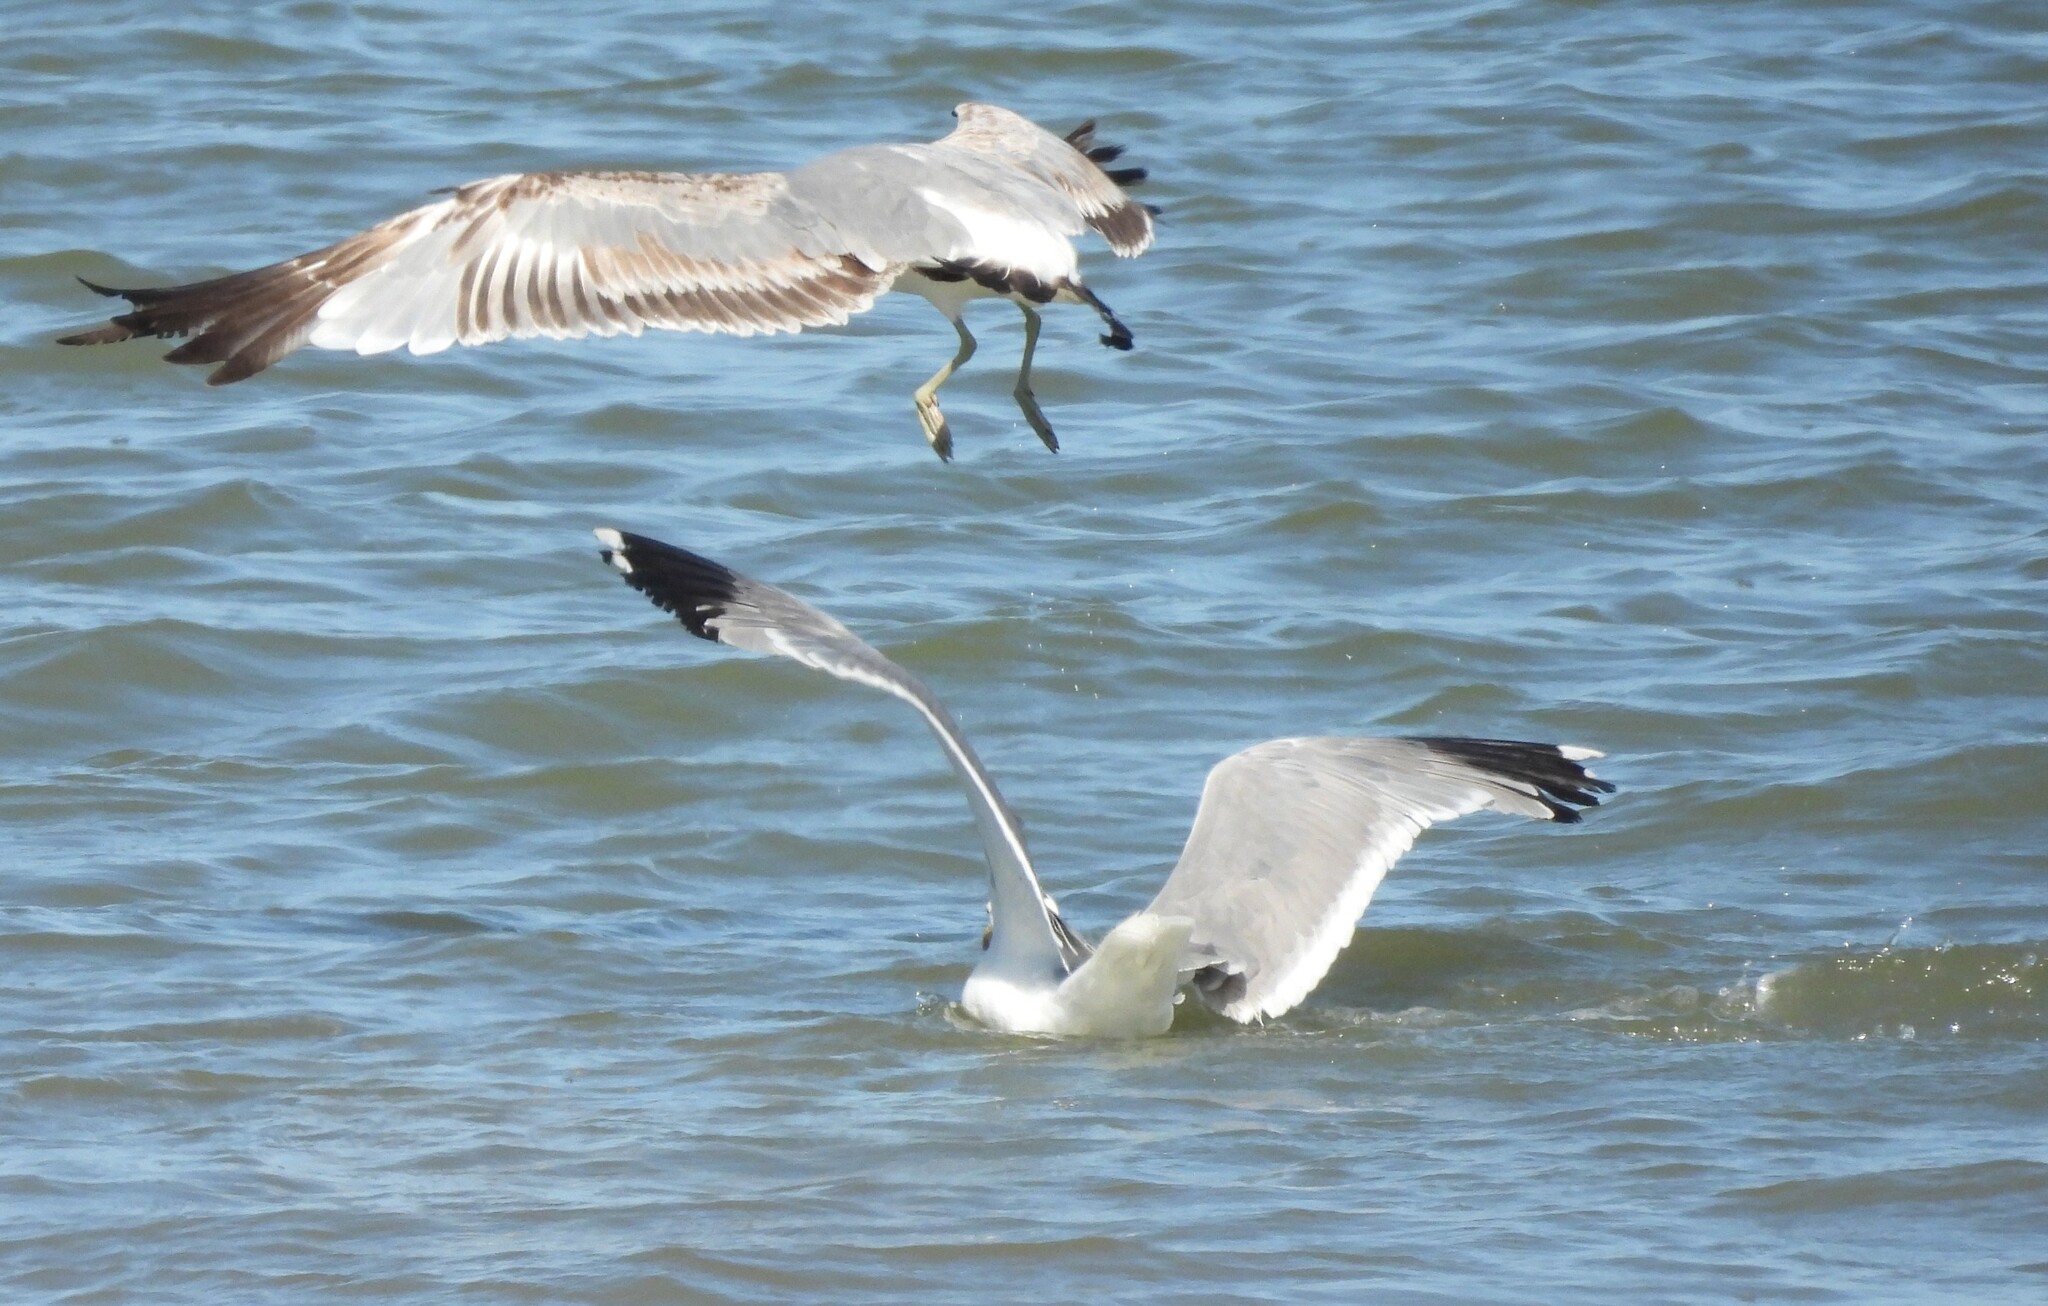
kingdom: Animalia
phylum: Chordata
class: Aves
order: Charadriiformes
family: Laridae
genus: Larus
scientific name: Larus californicus
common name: California gull
